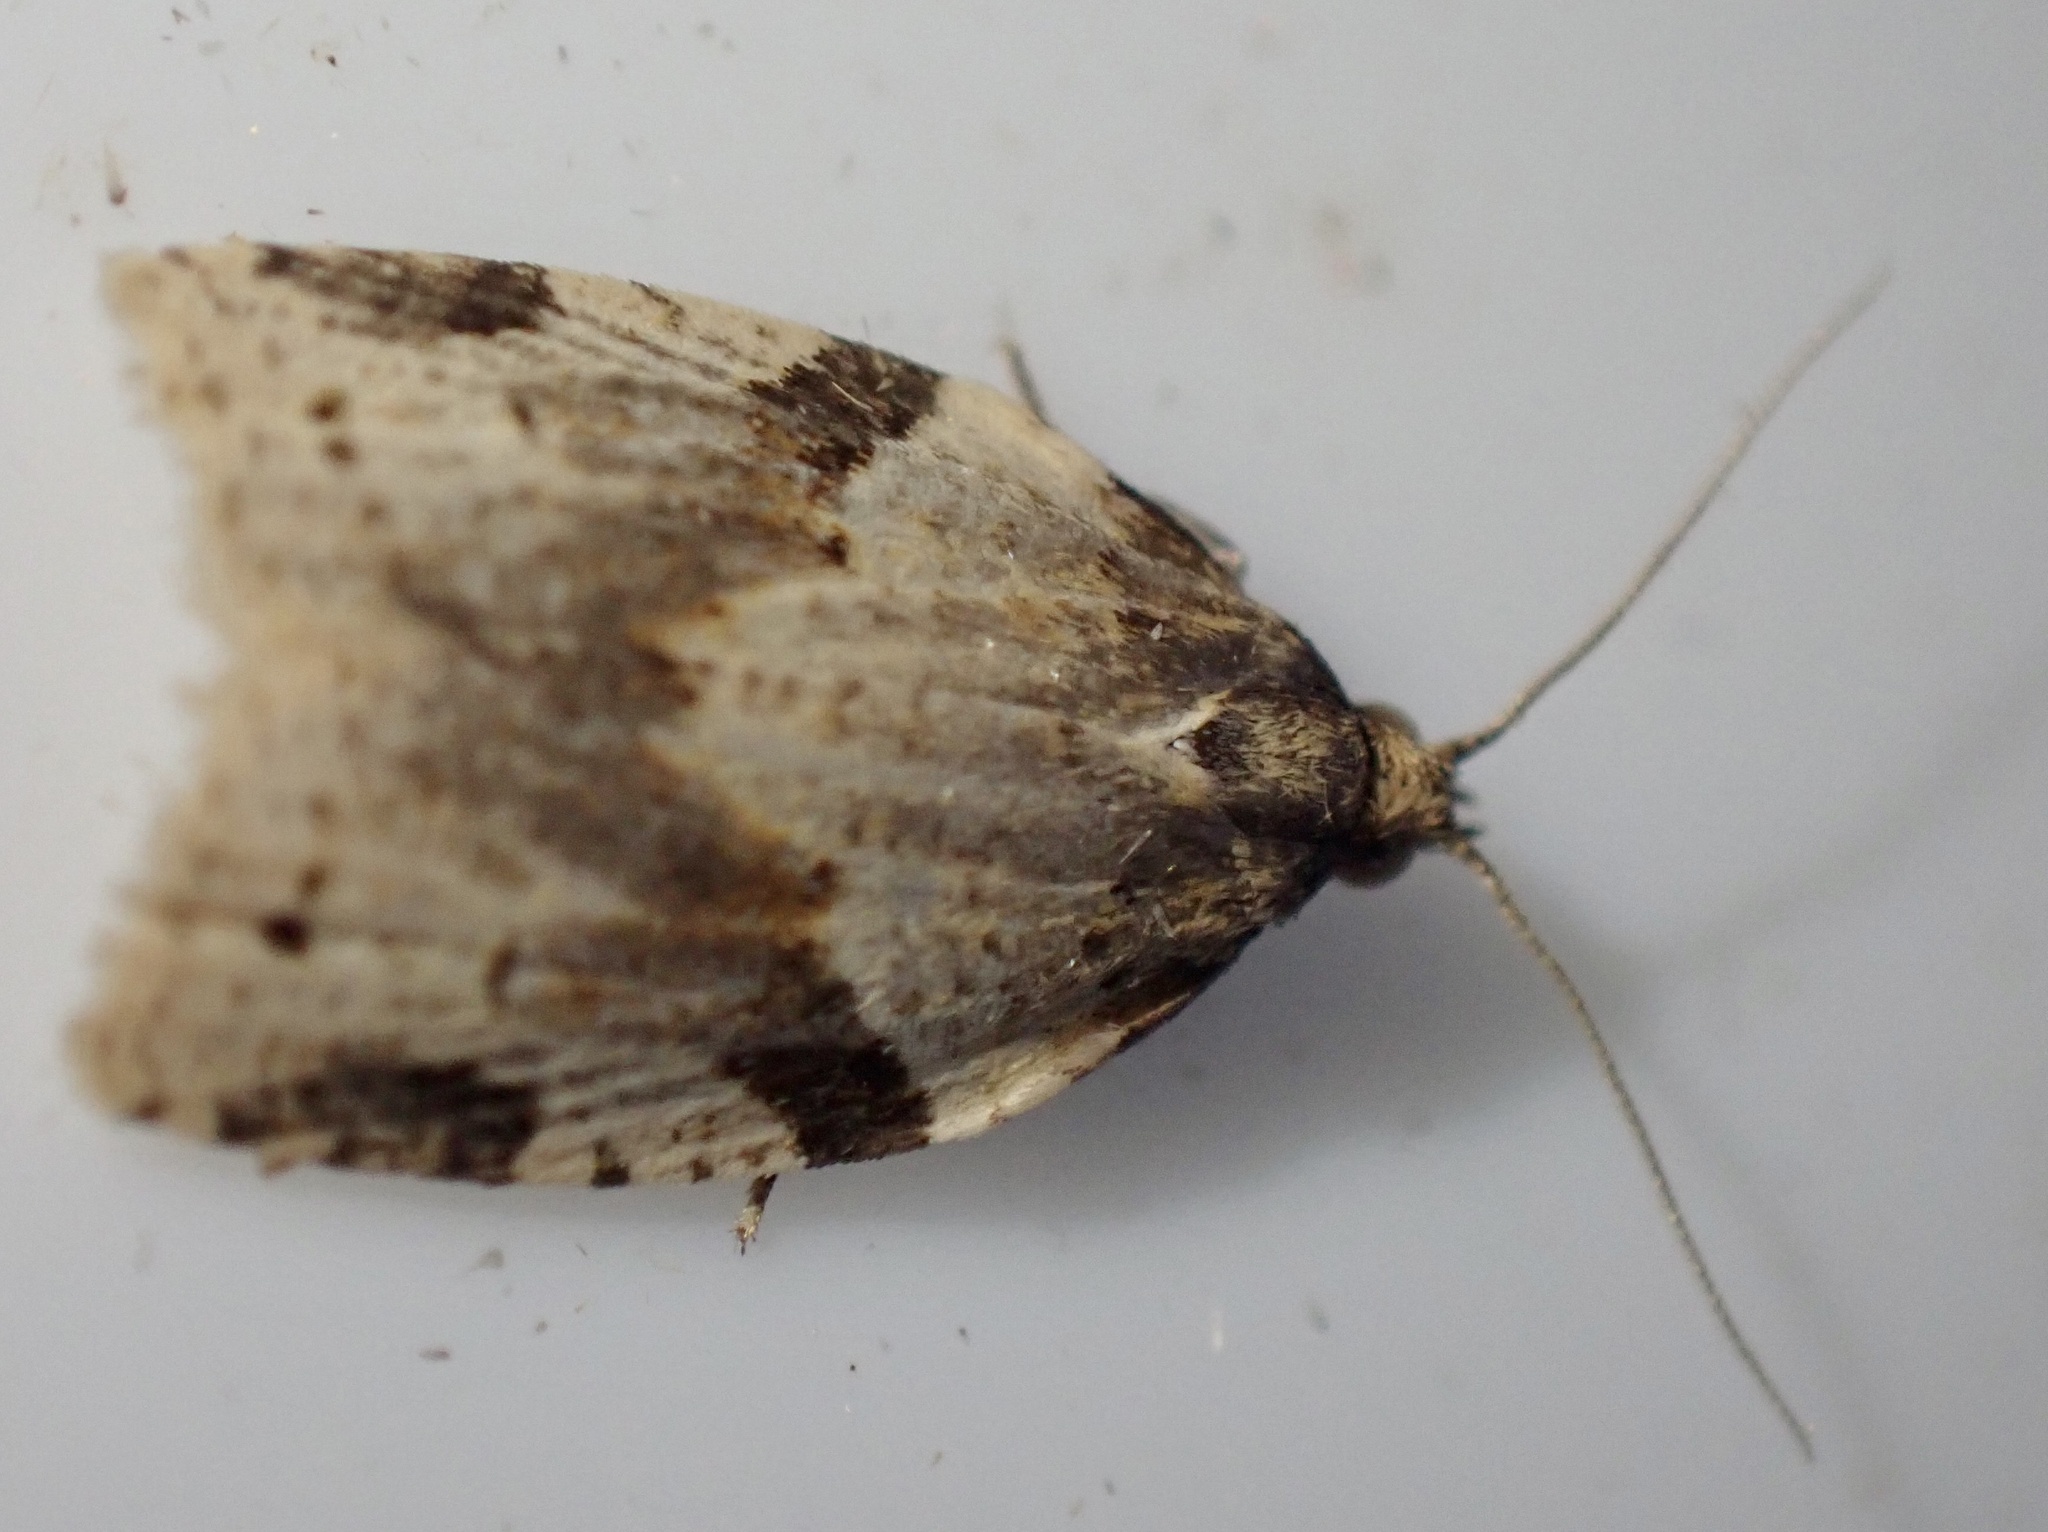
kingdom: Animalia
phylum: Arthropoda
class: Insecta
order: Lepidoptera
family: Tortricidae
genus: Clepsis
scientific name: Clepsis spectrana
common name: Cyclamen tortrix
